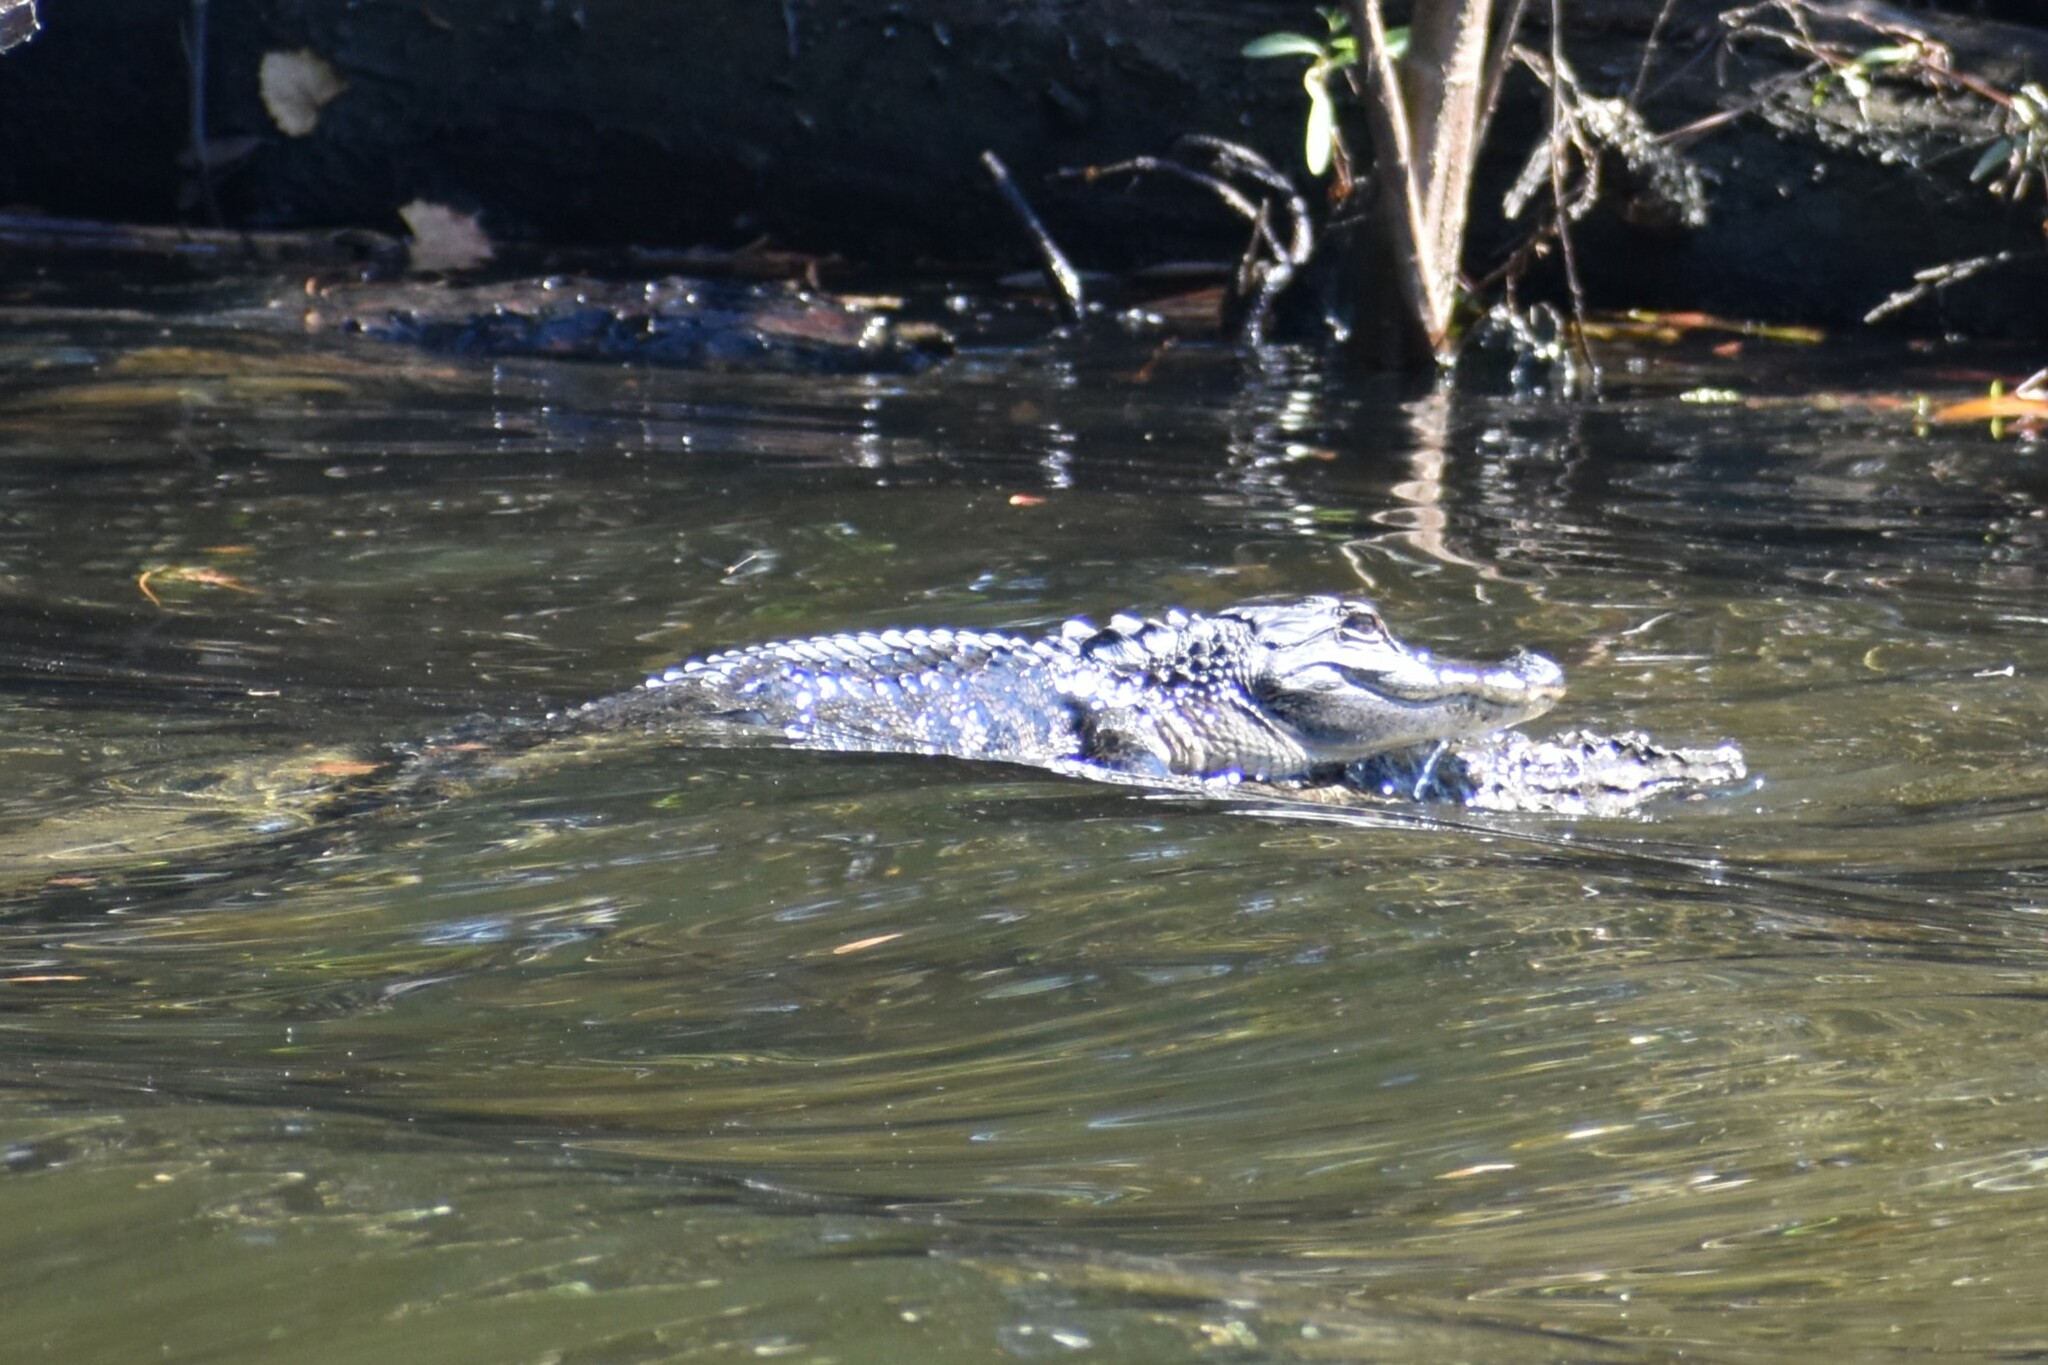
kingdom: Animalia
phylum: Chordata
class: Crocodylia
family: Alligatoridae
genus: Alligator
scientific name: Alligator mississippiensis
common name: American alligator
